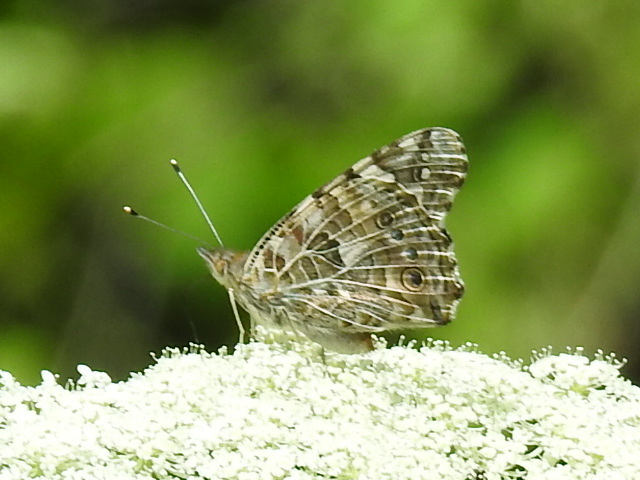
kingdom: Animalia
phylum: Arthropoda
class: Insecta
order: Lepidoptera
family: Nymphalidae
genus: Vanessa
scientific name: Vanessa cardui
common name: Painted lady
